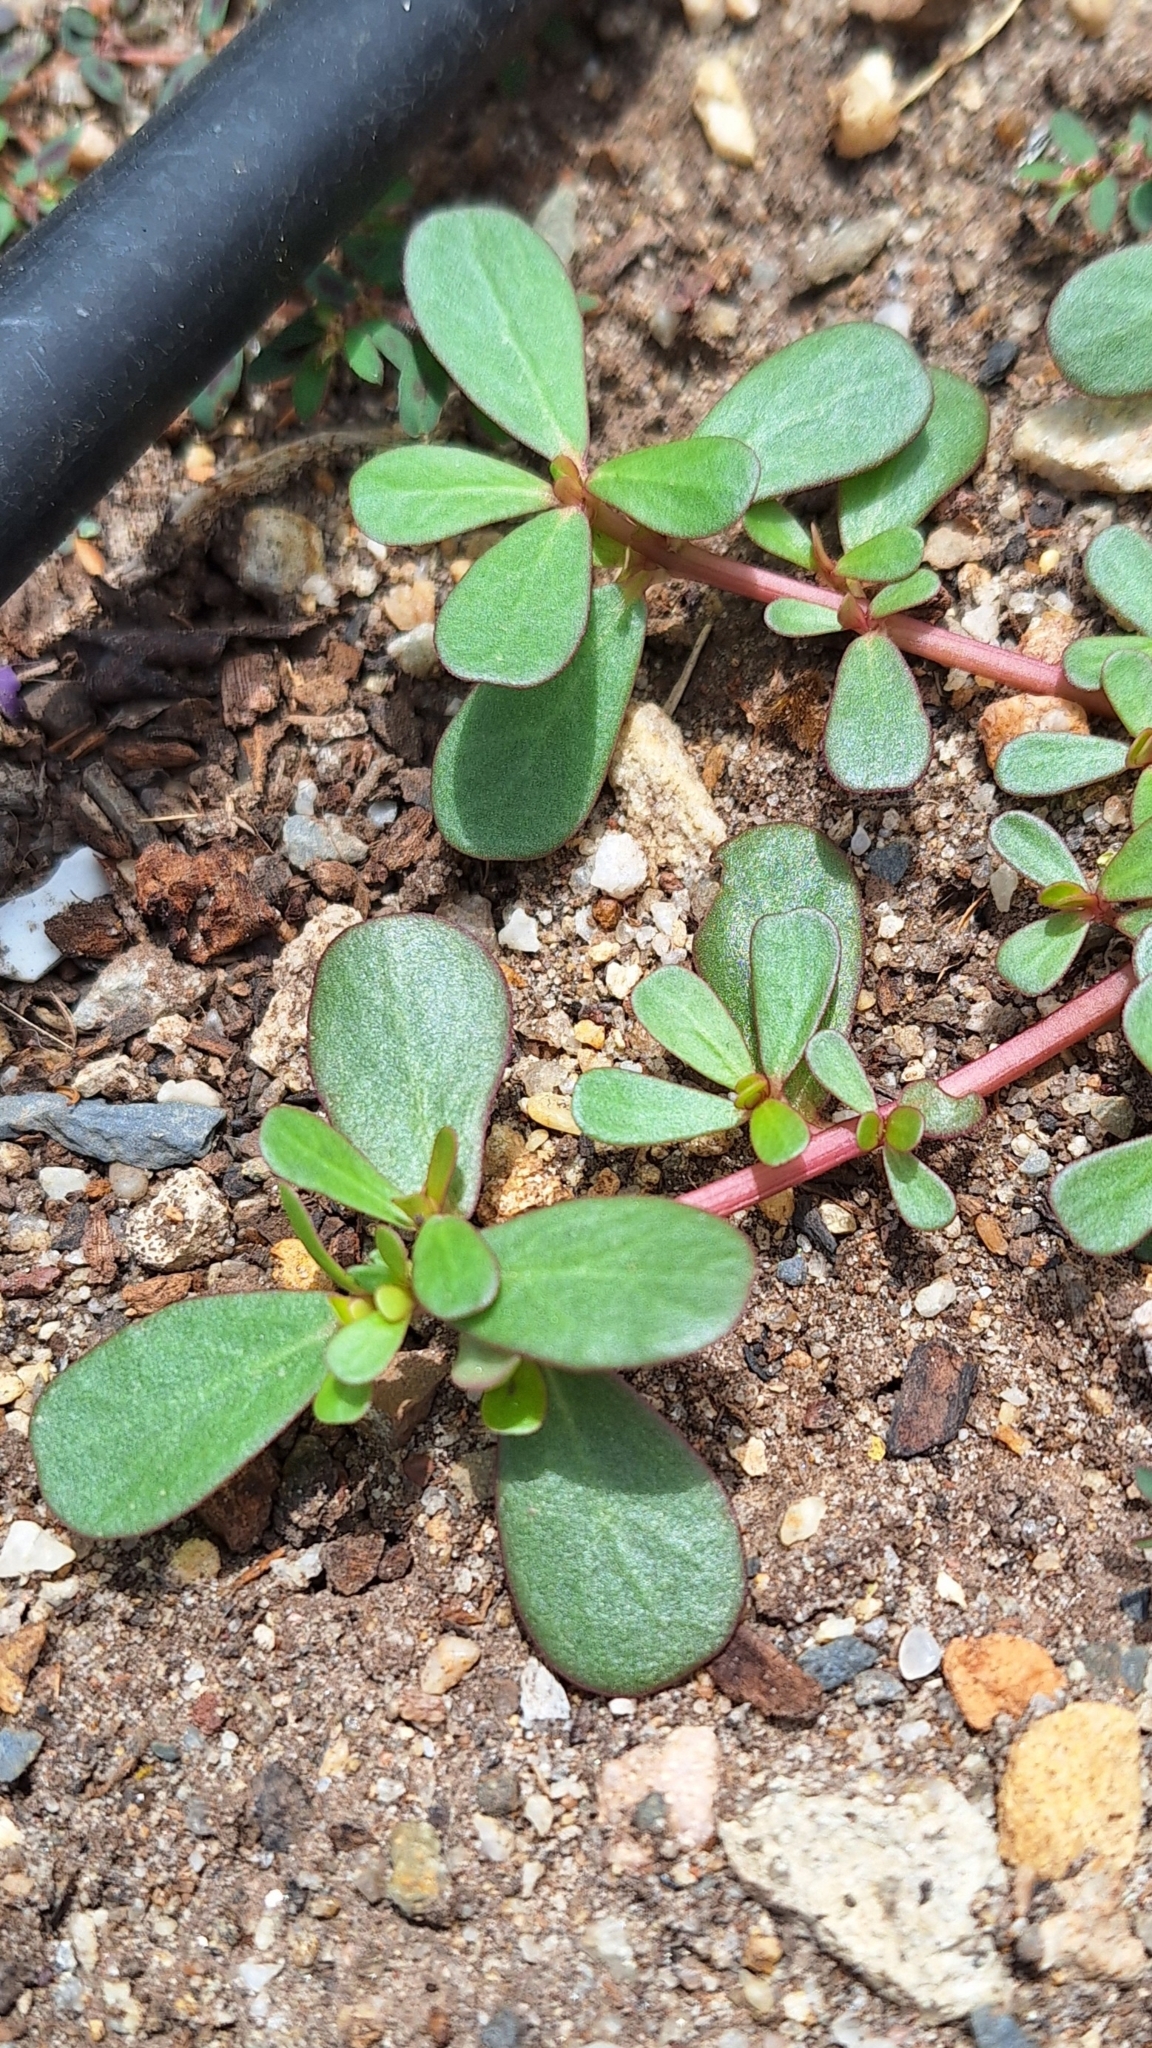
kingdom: Plantae
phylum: Tracheophyta
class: Magnoliopsida
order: Caryophyllales
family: Portulacaceae
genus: Portulaca
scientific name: Portulaca oleracea
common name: Common purslane
